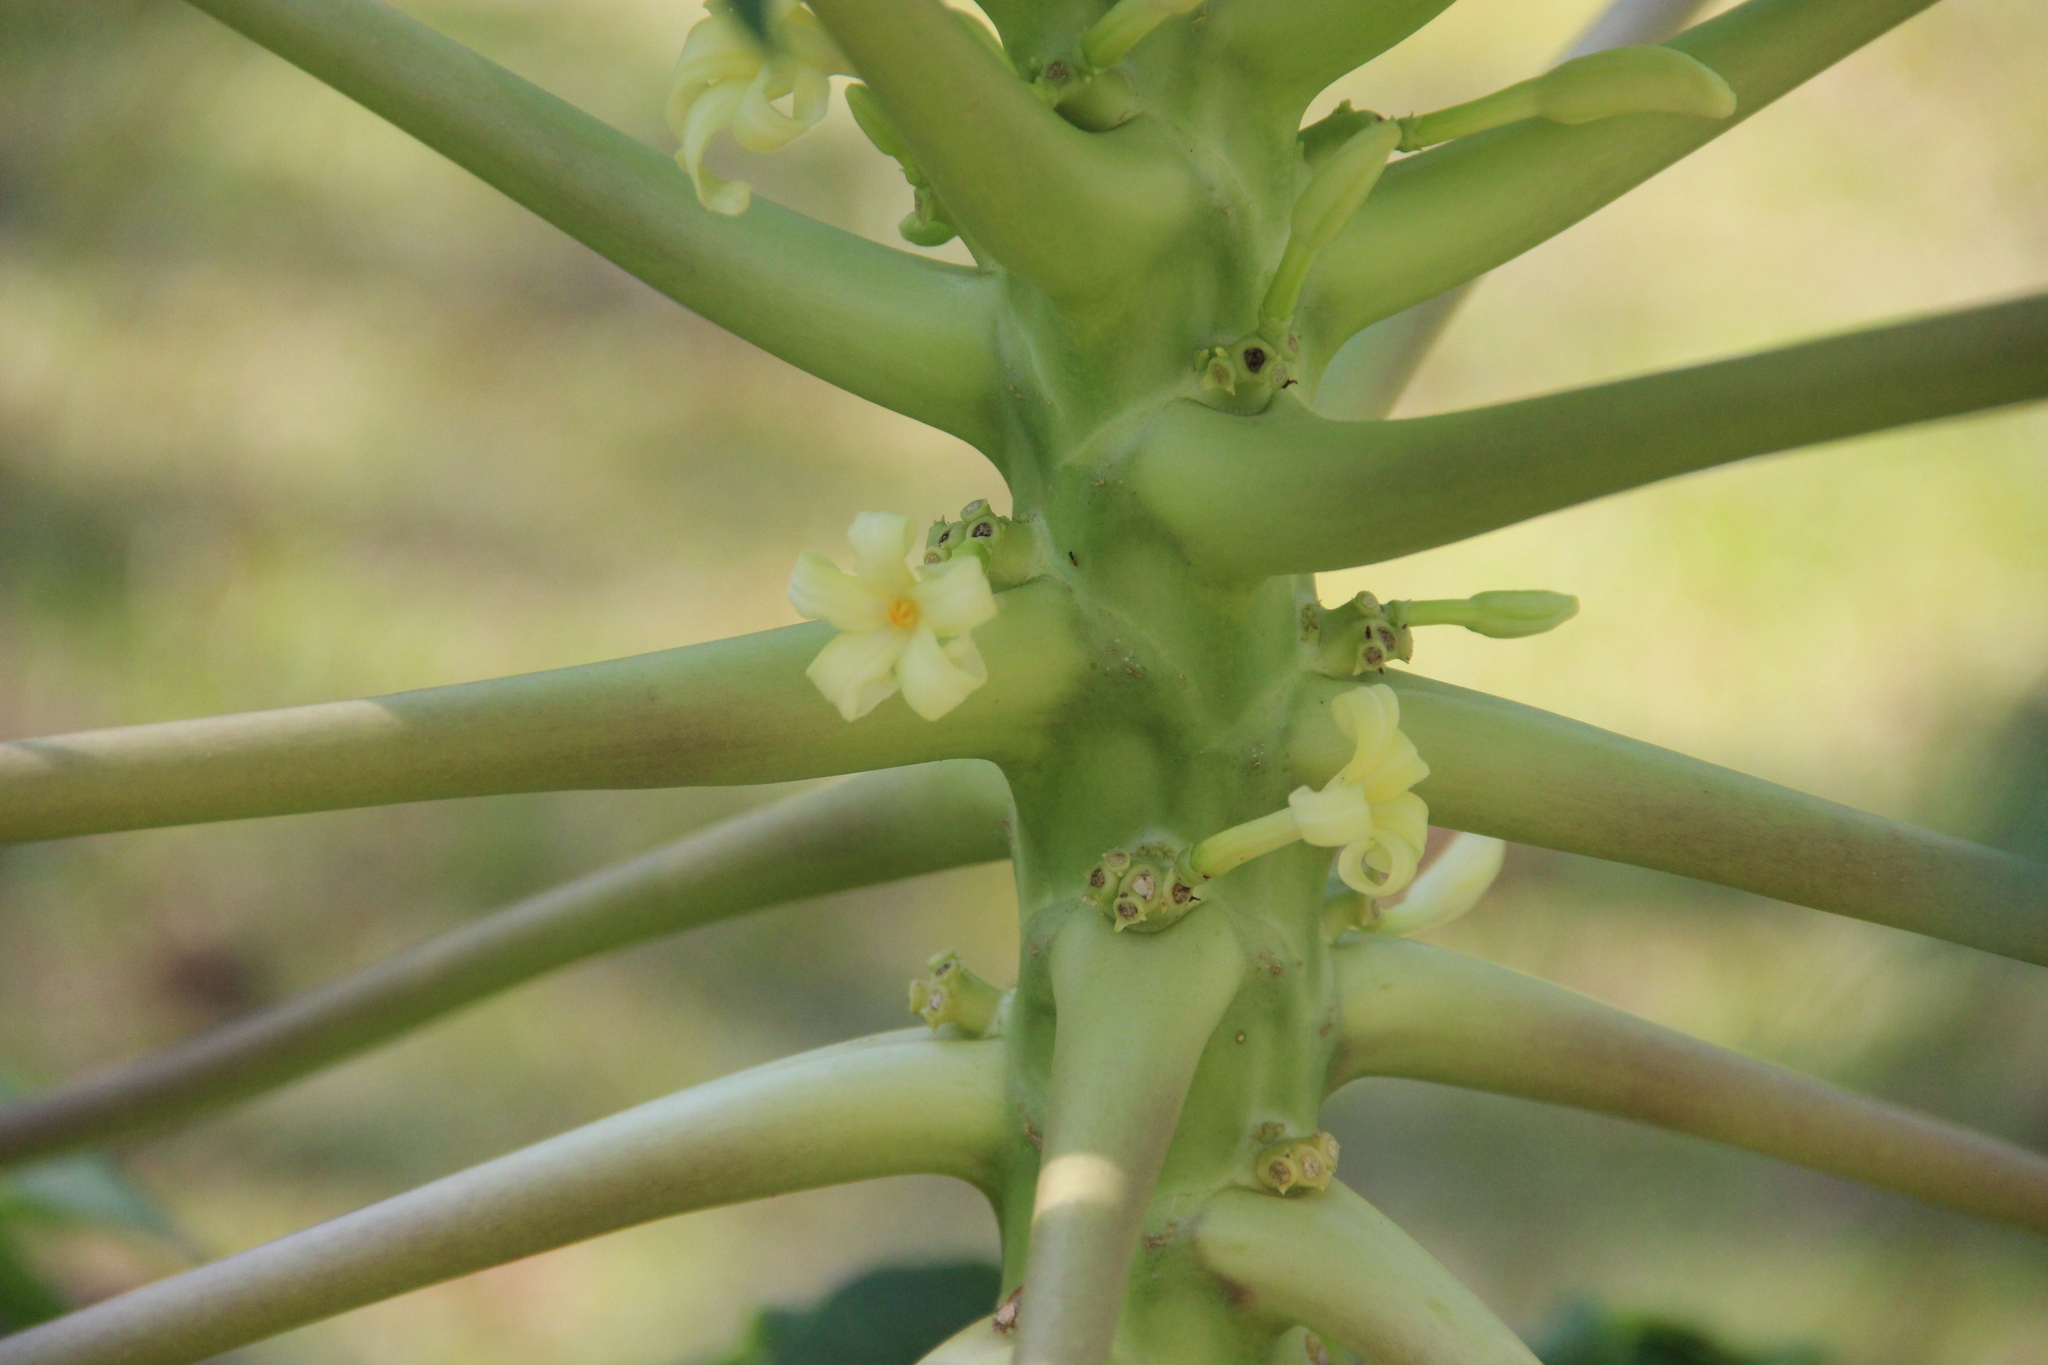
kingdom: Plantae
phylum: Tracheophyta
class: Magnoliopsida
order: Brassicales
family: Caricaceae
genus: Carica
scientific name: Carica papaya
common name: Papaya
